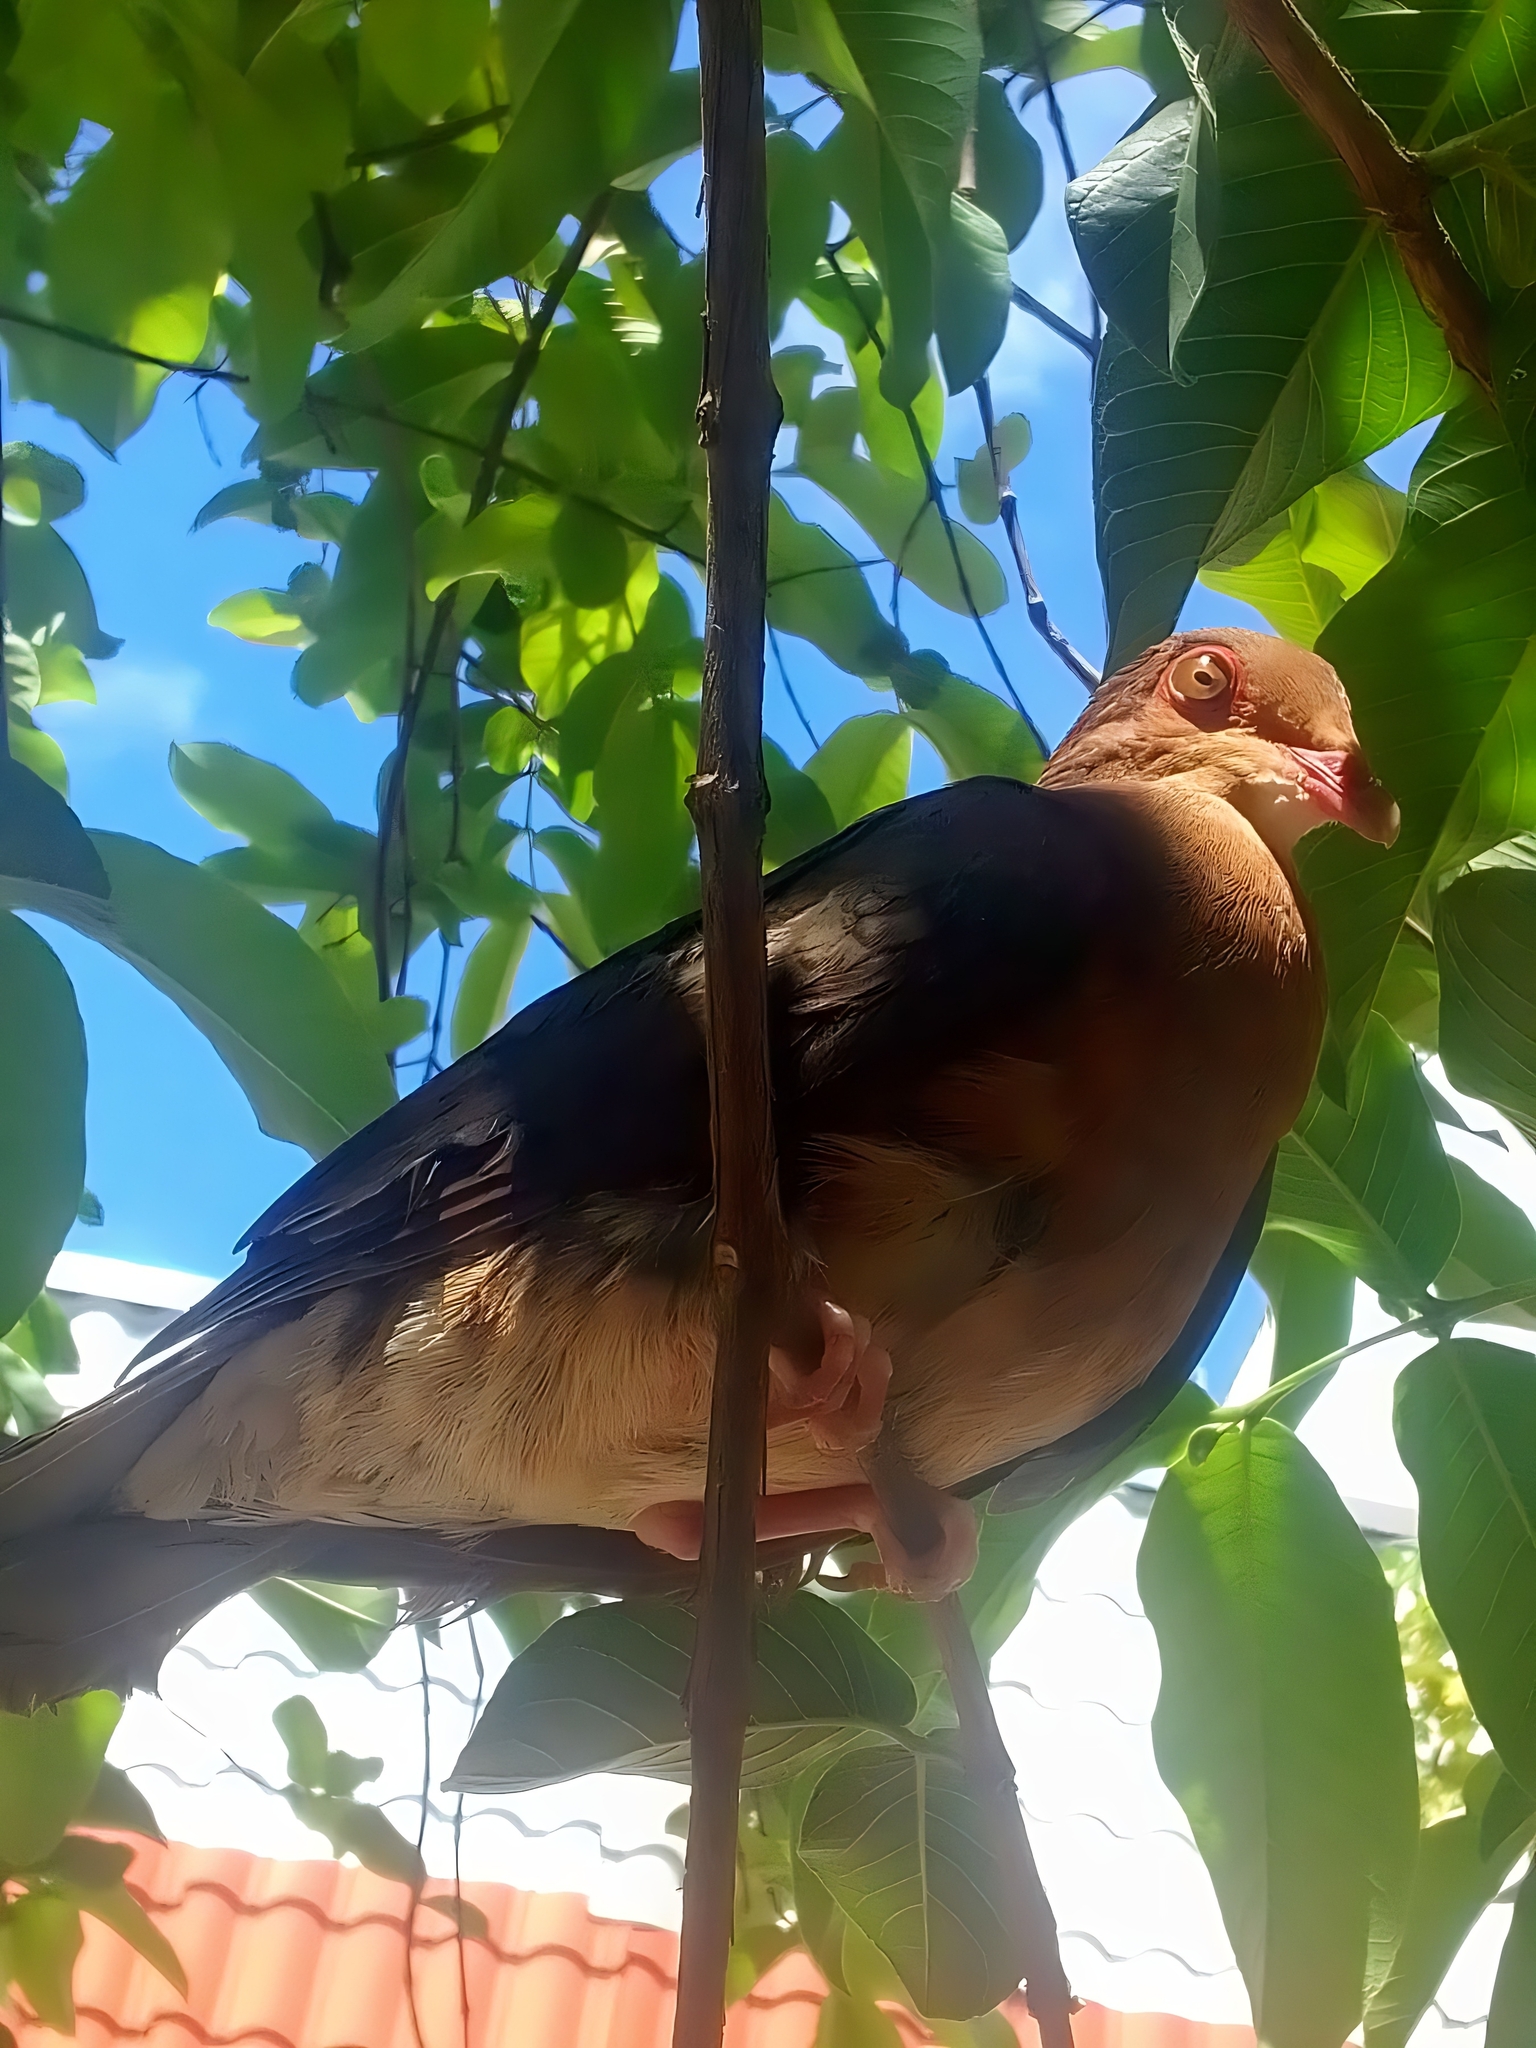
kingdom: Animalia
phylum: Chordata
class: Aves
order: Columbiformes
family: Columbidae
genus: Geotrygon
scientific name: Geotrygon montana
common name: Ruddy quail-dove
